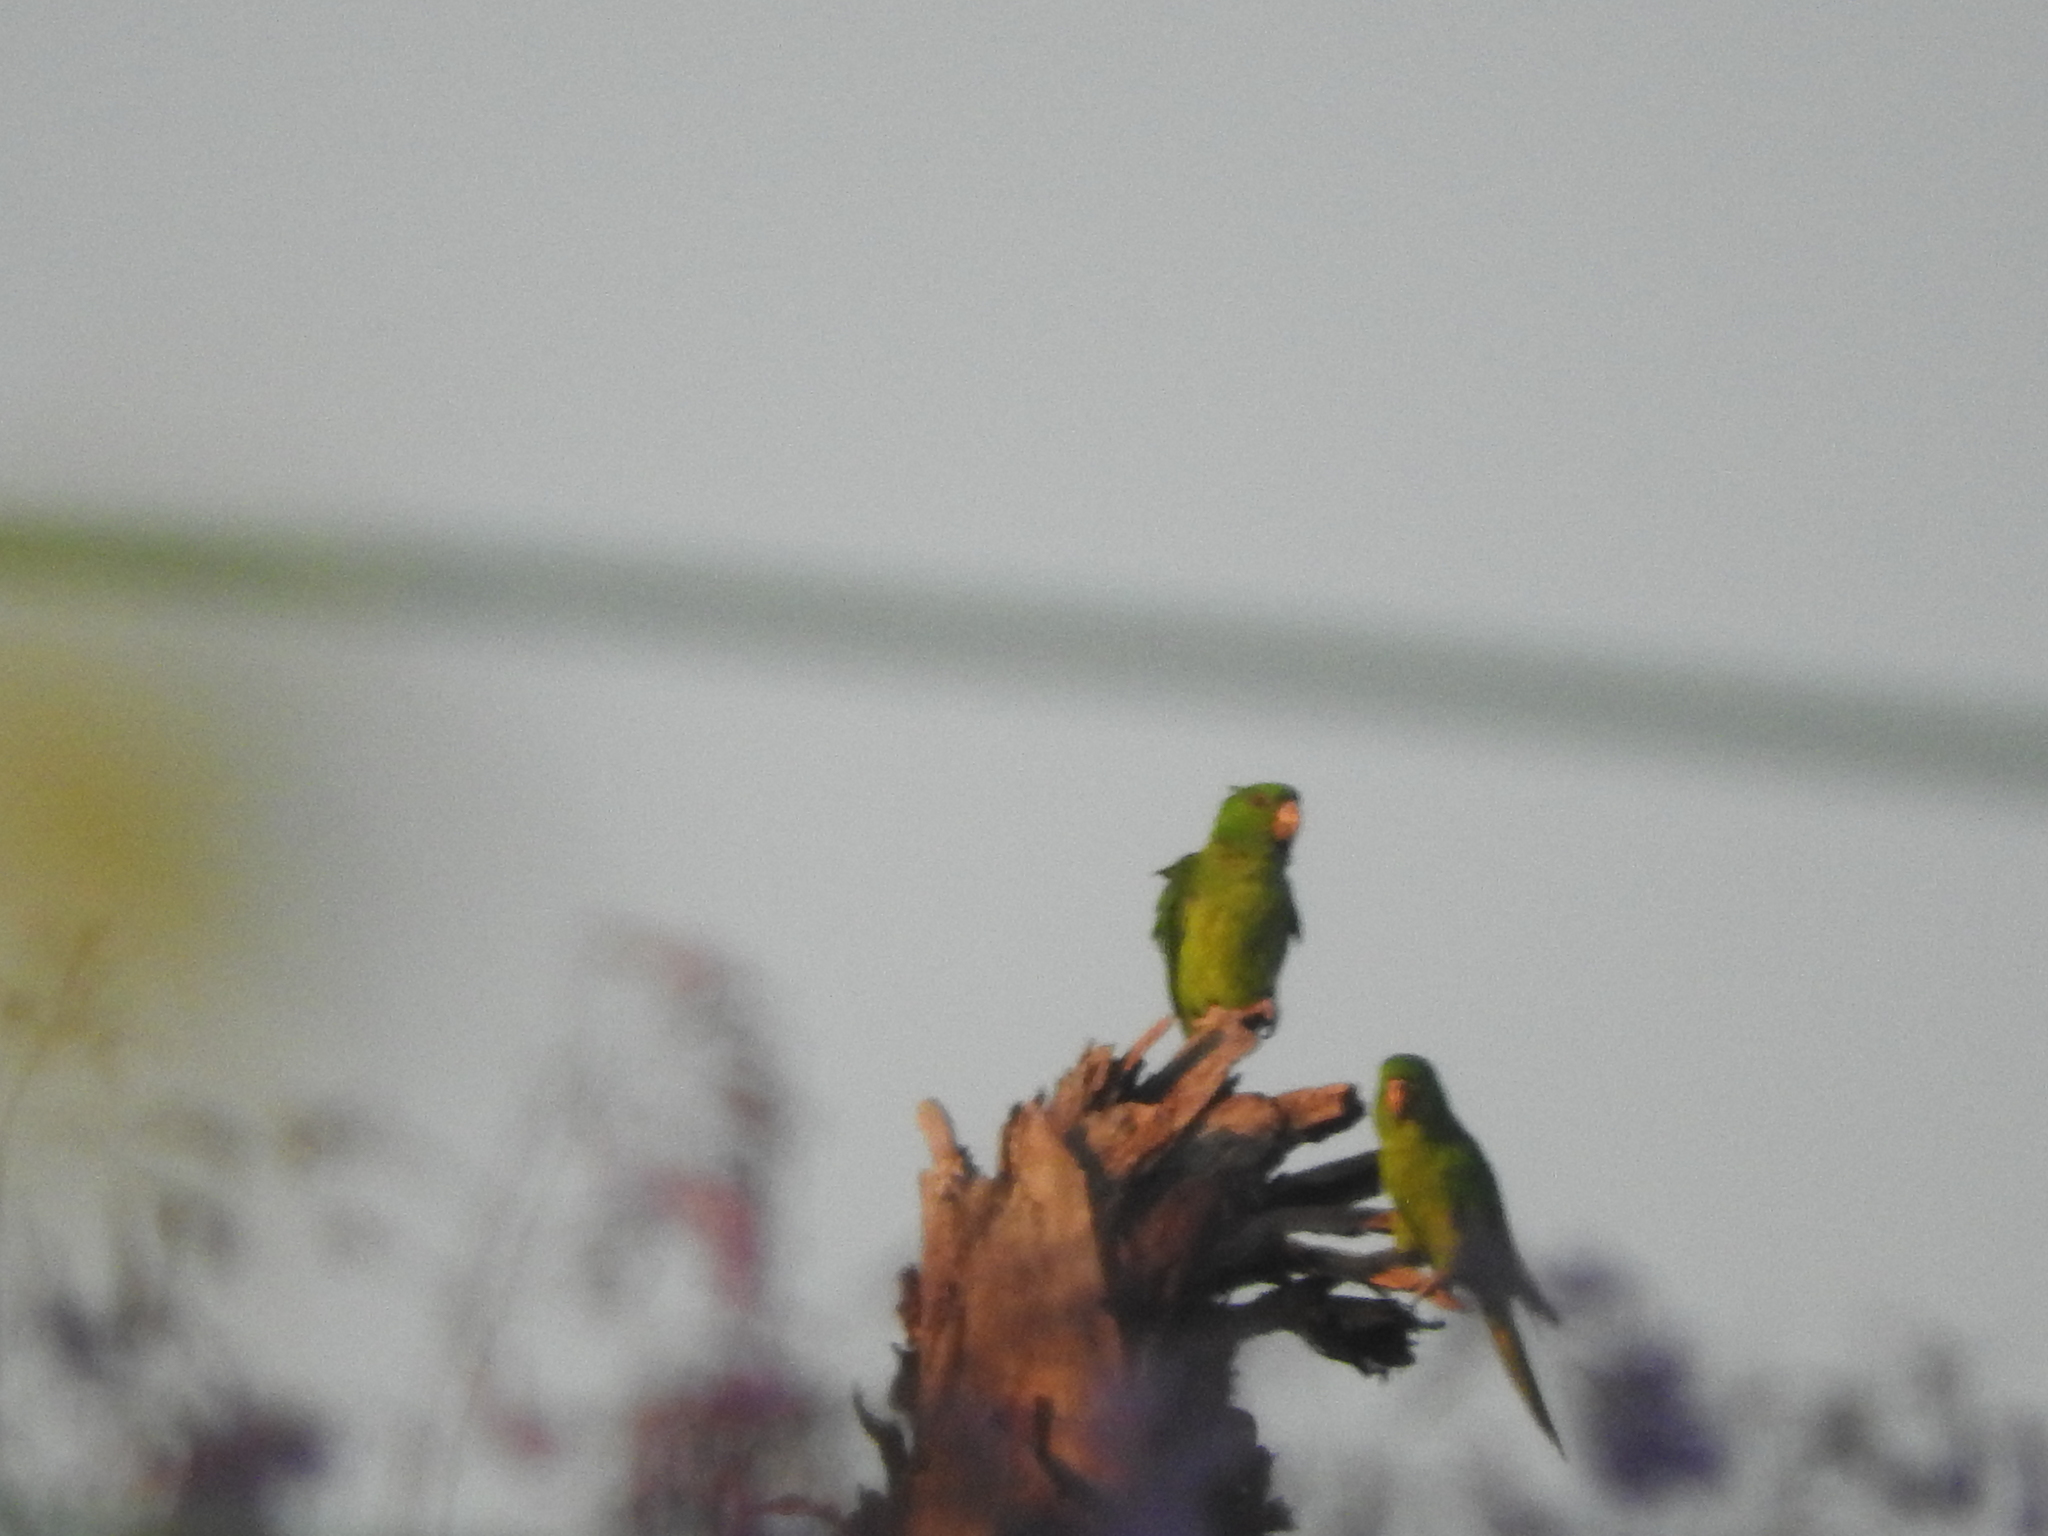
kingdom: Animalia
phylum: Chordata
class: Aves
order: Psittaciformes
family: Psittacidae
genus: Aratinga
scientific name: Aratinga holochlora
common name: Green parakeet
